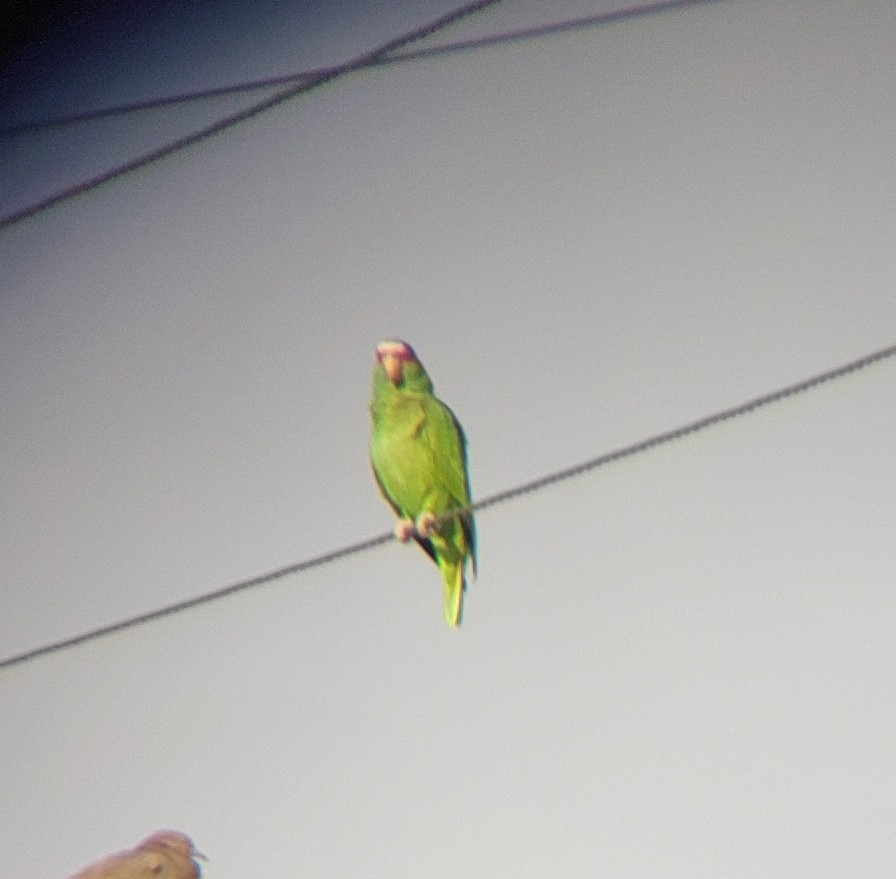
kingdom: Animalia
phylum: Chordata
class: Aves
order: Psittaciformes
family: Psittacidae
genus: Amazona
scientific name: Amazona albifrons
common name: White-fronted amazon
